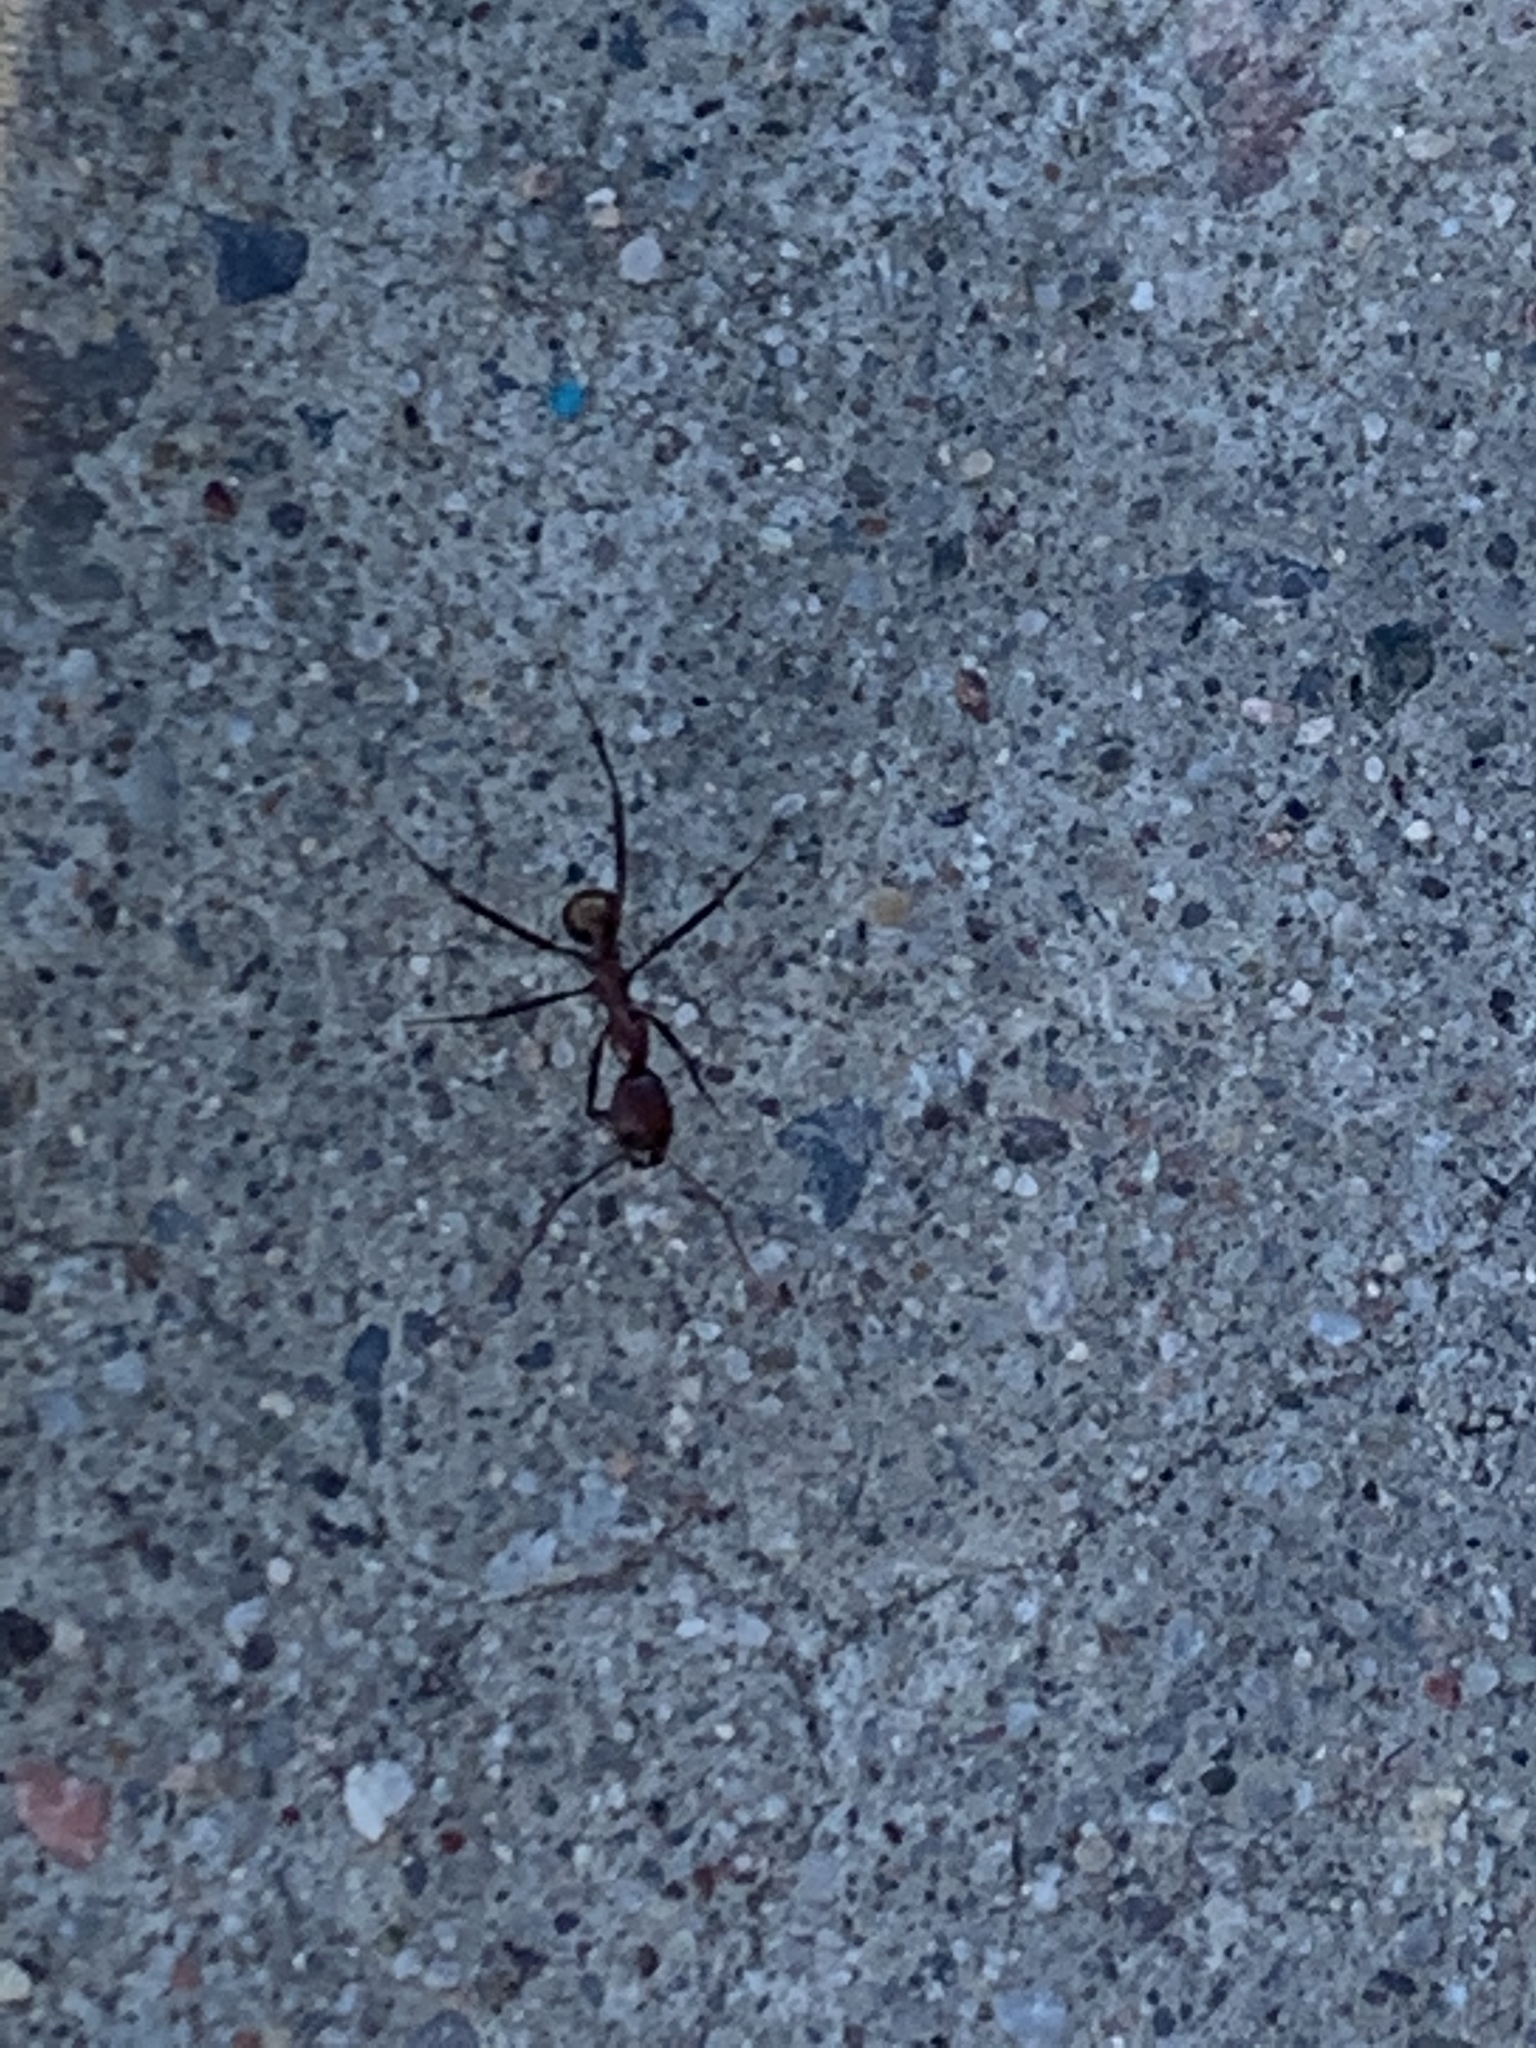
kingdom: Animalia
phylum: Arthropoda
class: Insecta
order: Hymenoptera
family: Formicidae
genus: Novomessor
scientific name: Novomessor cockerelli
